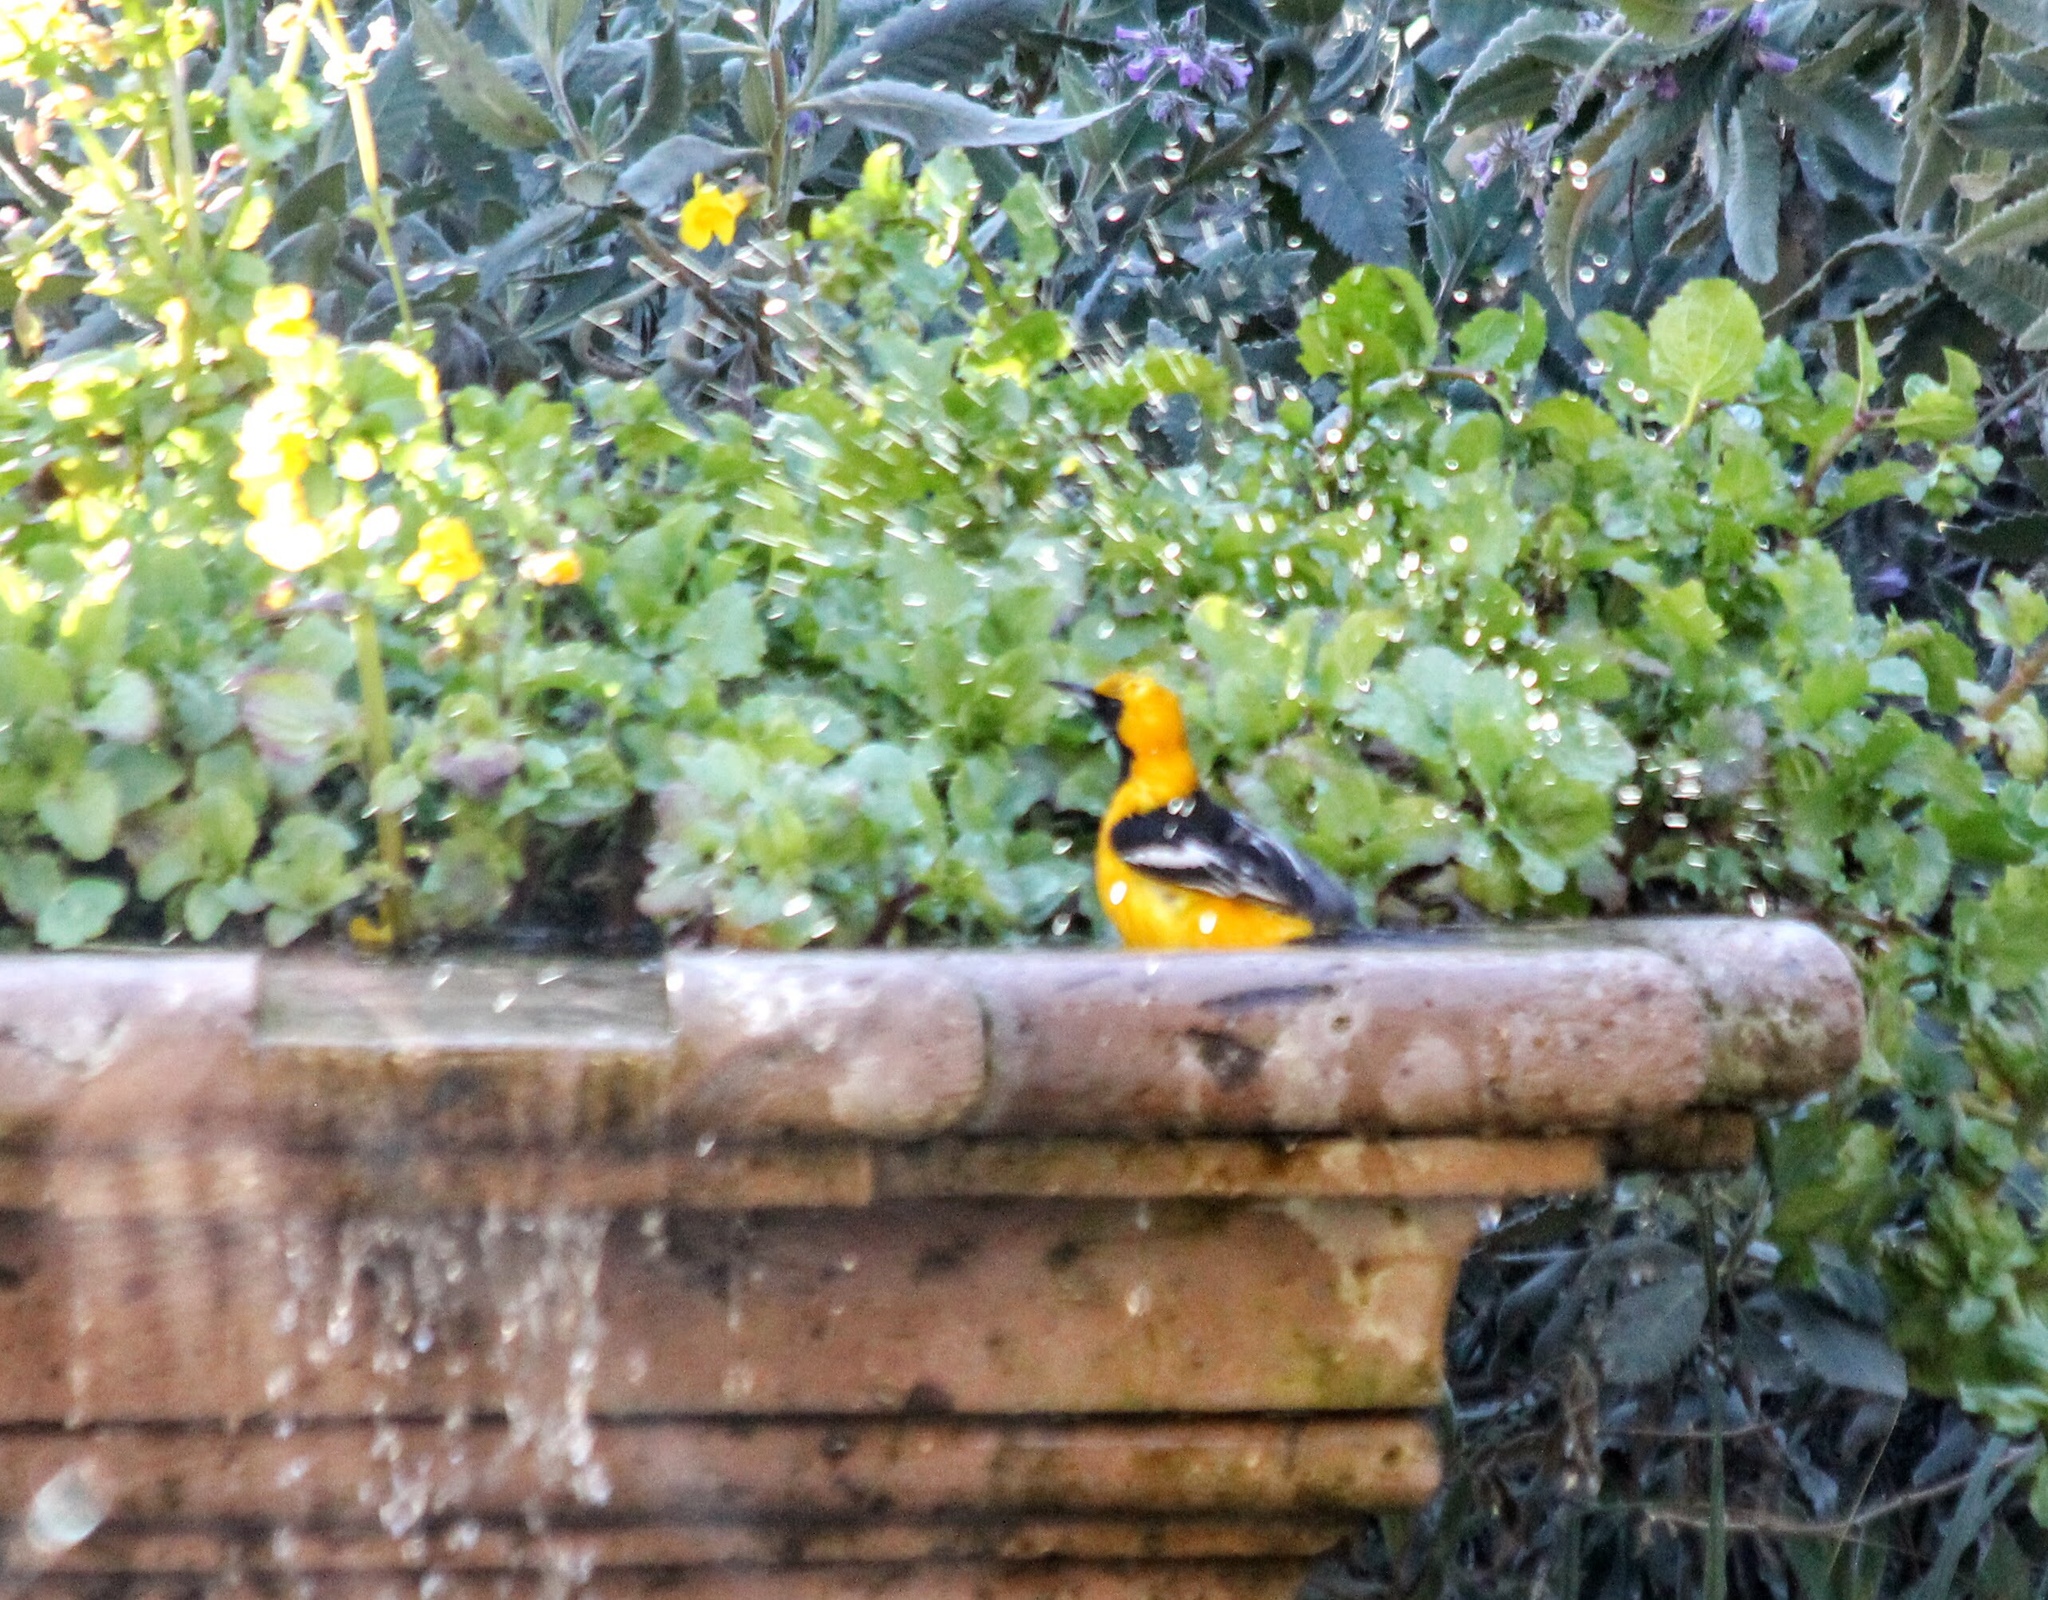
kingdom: Animalia
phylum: Chordata
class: Aves
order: Passeriformes
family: Icteridae
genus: Icterus
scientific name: Icterus cucullatus
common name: Hooded oriole
